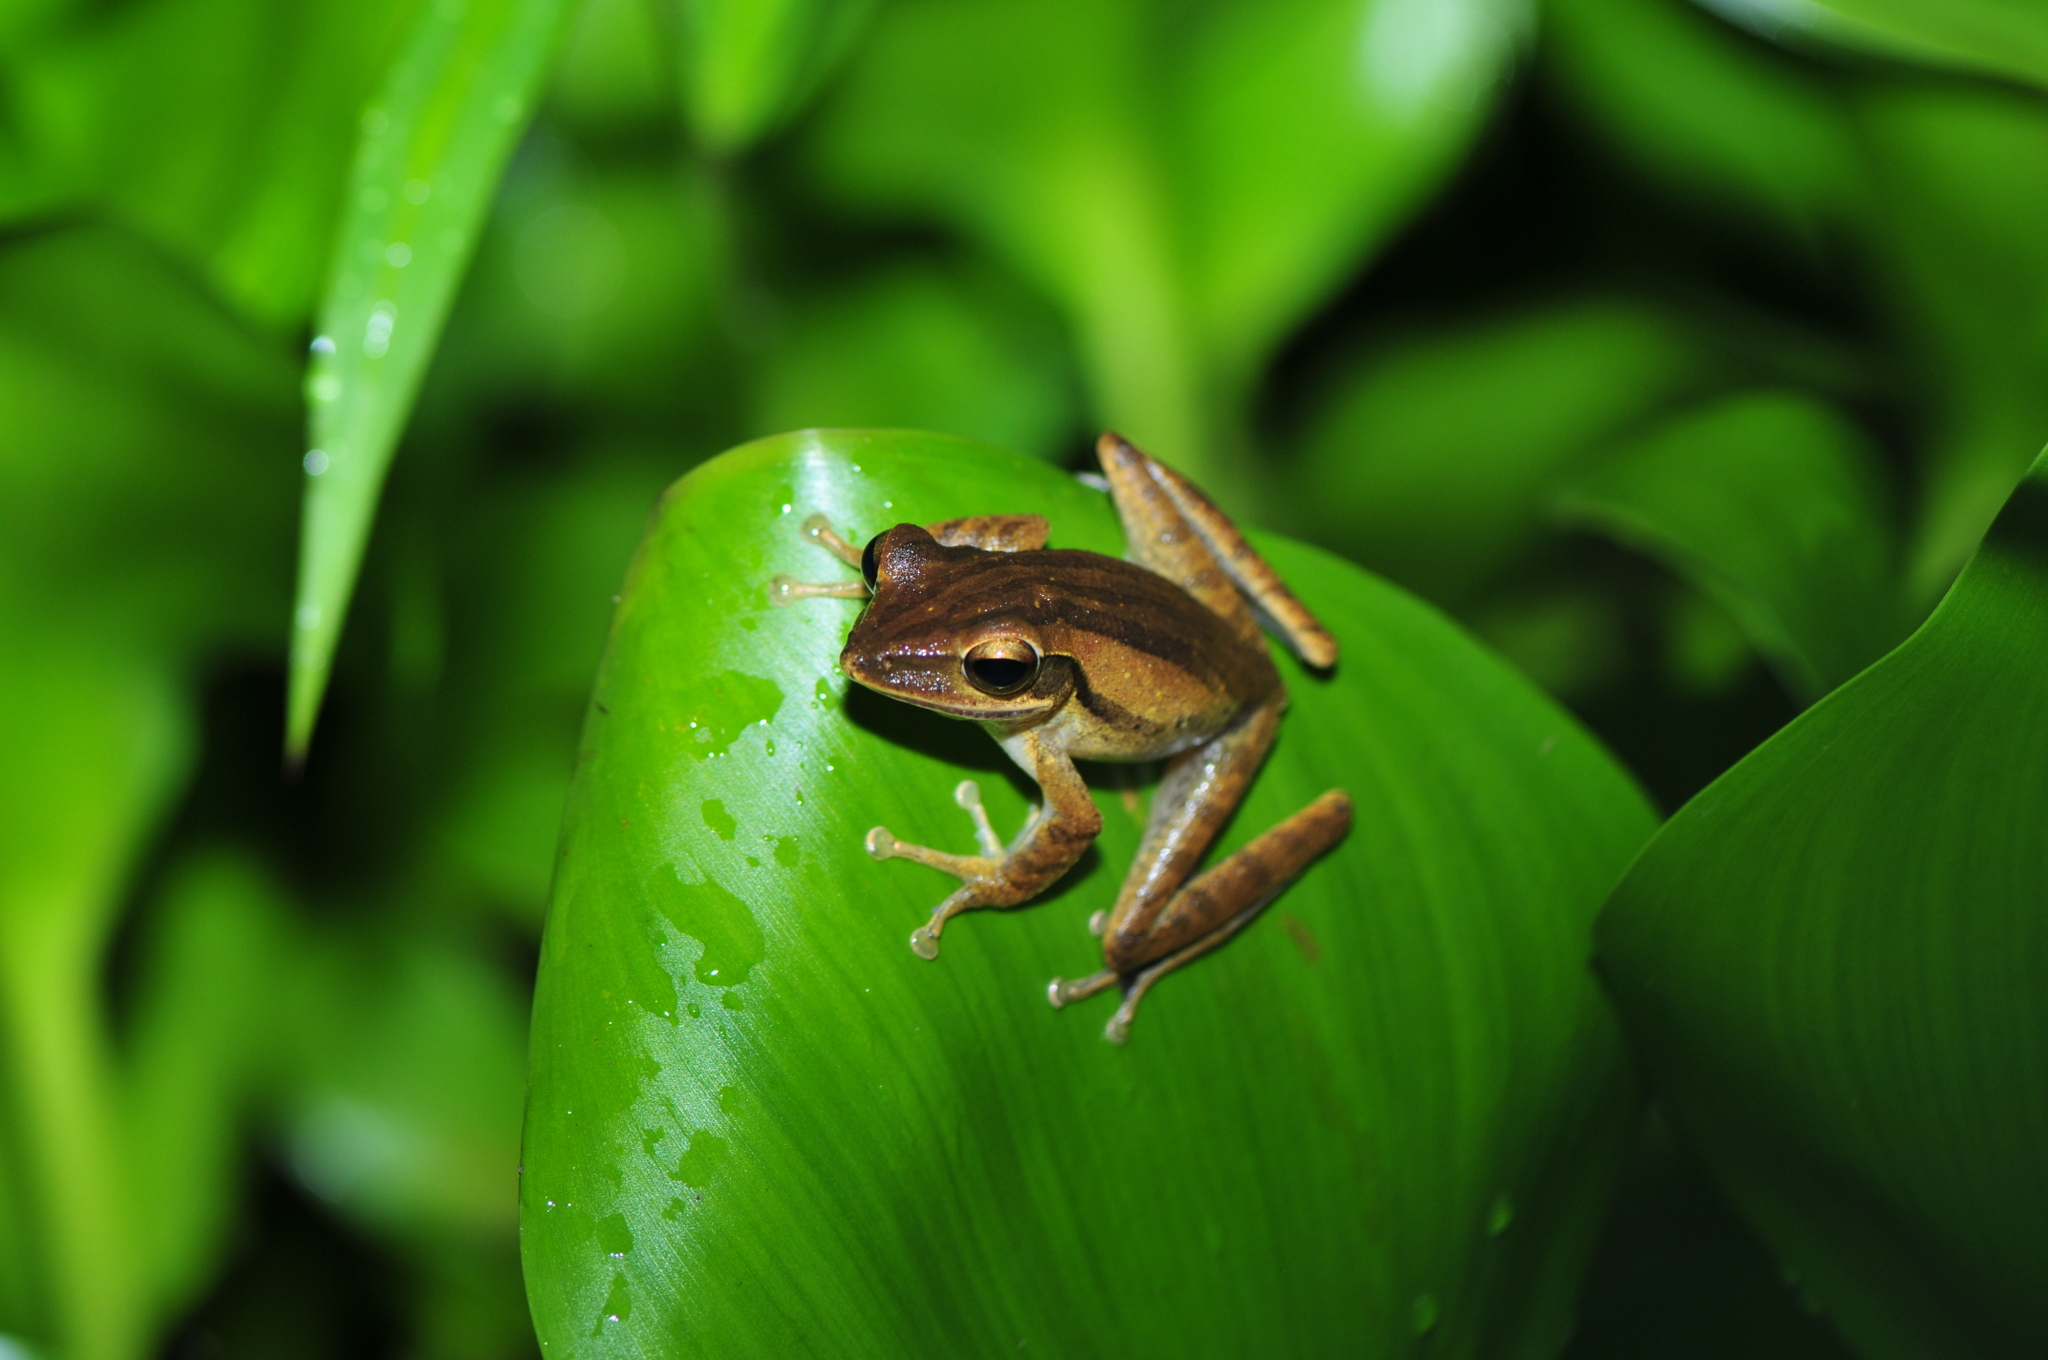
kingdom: Animalia
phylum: Chordata
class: Amphibia
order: Anura
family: Rhacophoridae
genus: Polypedates
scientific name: Polypedates leucomystax
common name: Common tree frog/four-lined tree frog
